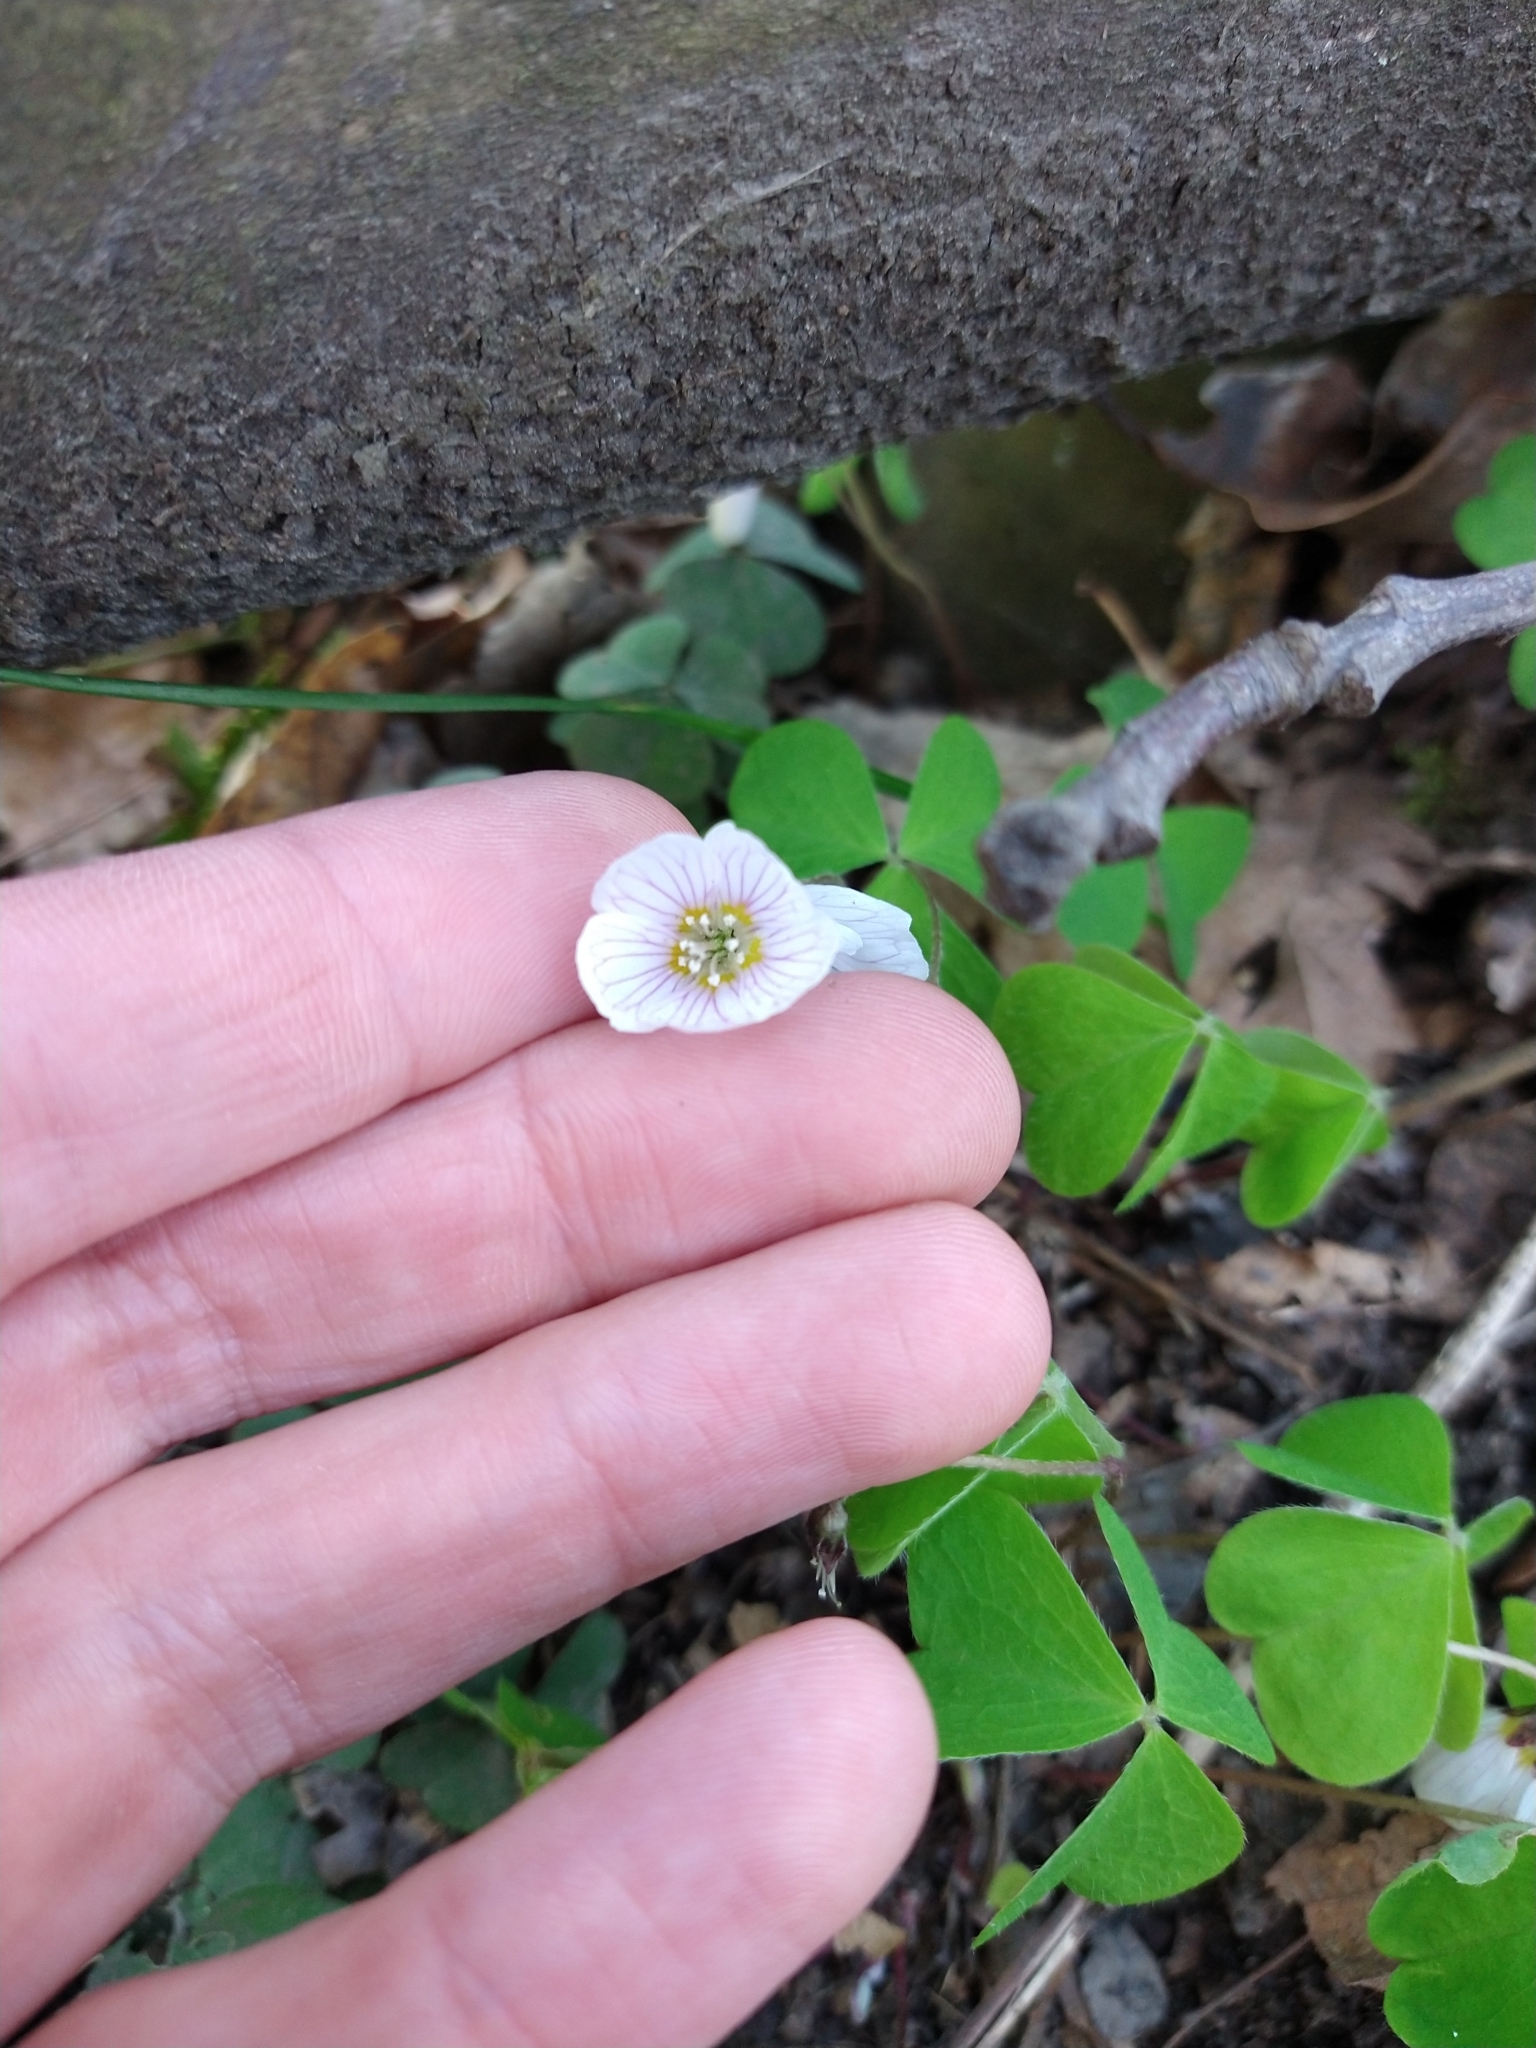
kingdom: Plantae
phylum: Tracheophyta
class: Magnoliopsida
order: Oxalidales
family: Oxalidaceae
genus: Oxalis
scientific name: Oxalis acetosella
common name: Wood-sorrel
